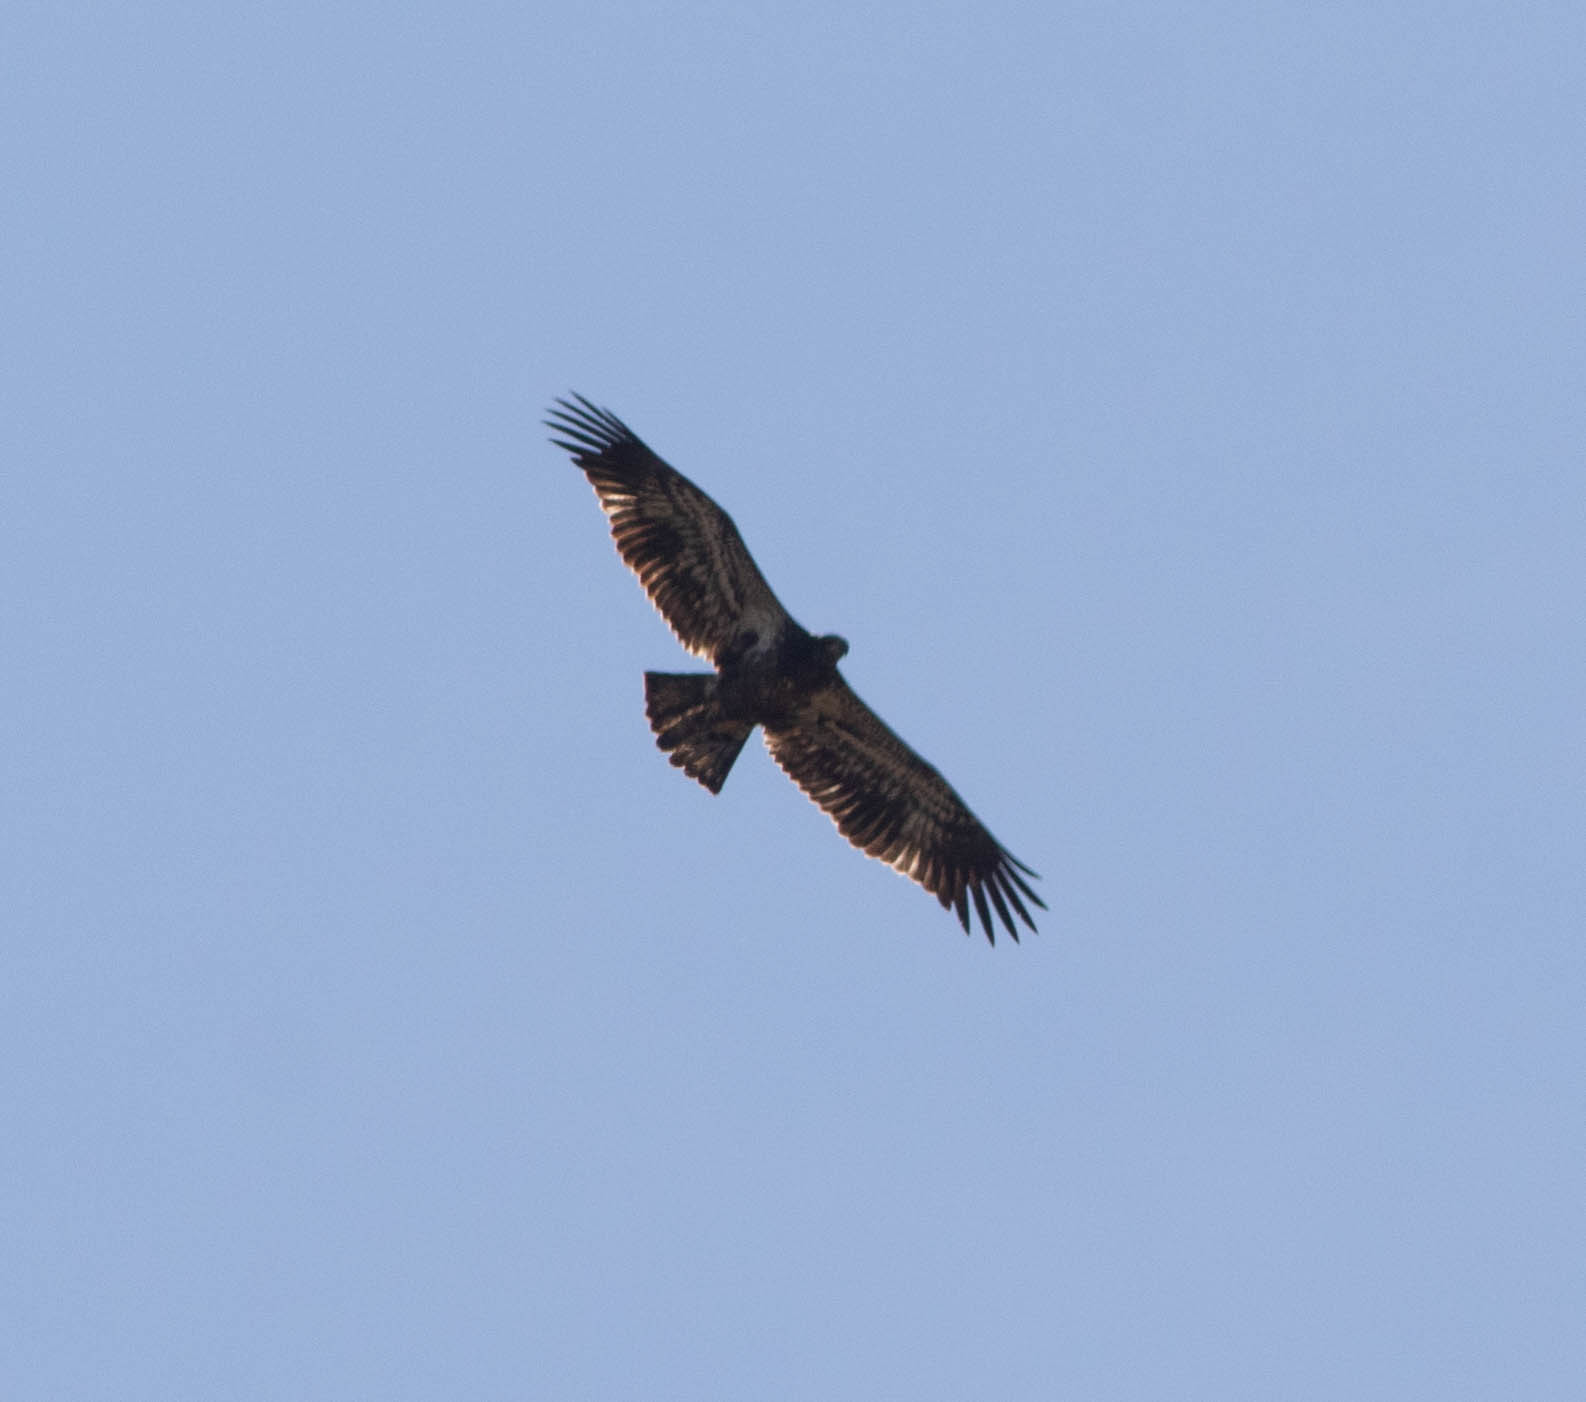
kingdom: Animalia
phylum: Chordata
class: Aves
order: Accipitriformes
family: Accipitridae
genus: Haliaeetus
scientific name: Haliaeetus leucocephalus
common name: Bald eagle
